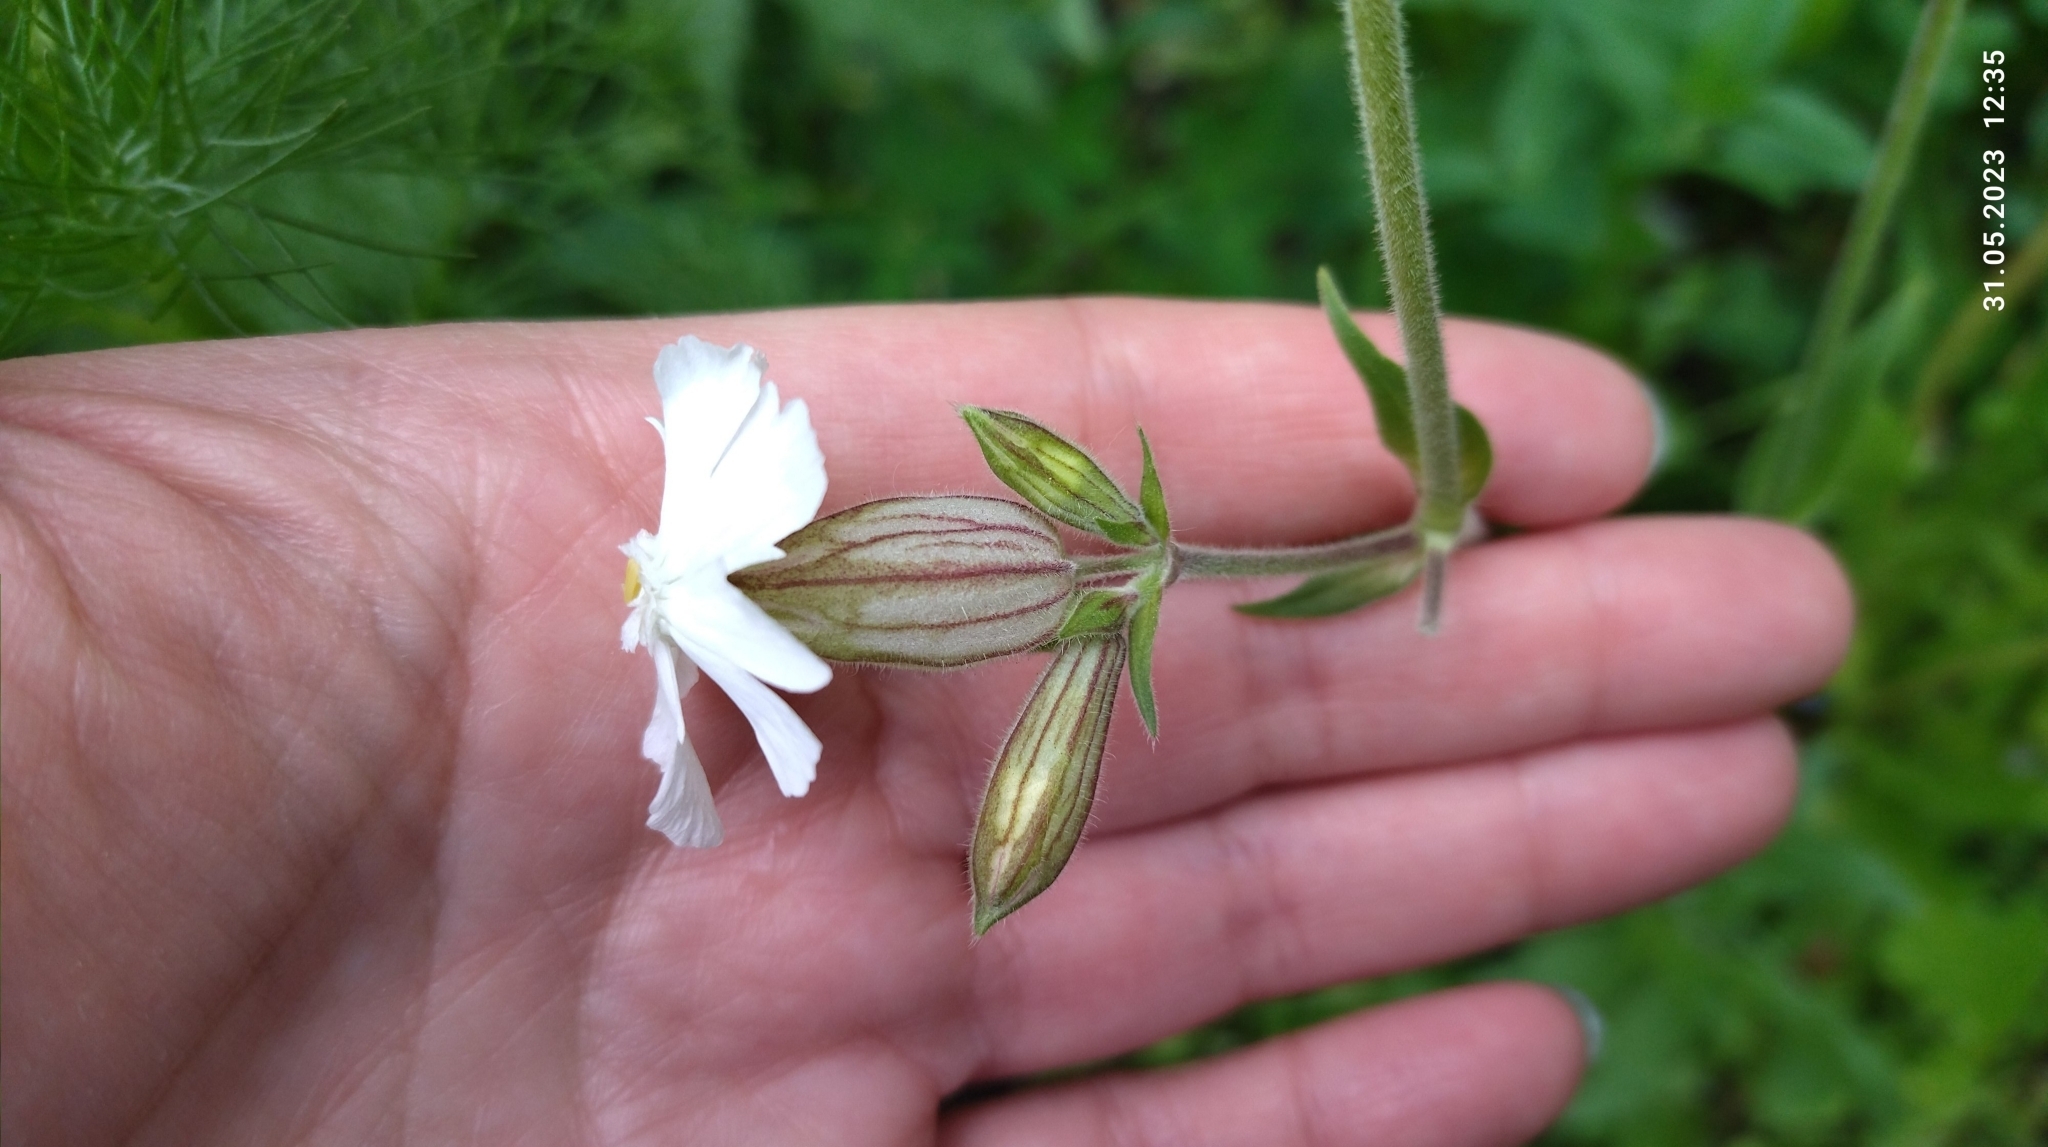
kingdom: Plantae
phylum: Tracheophyta
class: Magnoliopsida
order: Caryophyllales
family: Caryophyllaceae
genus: Silene
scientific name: Silene latifolia
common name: White campion
